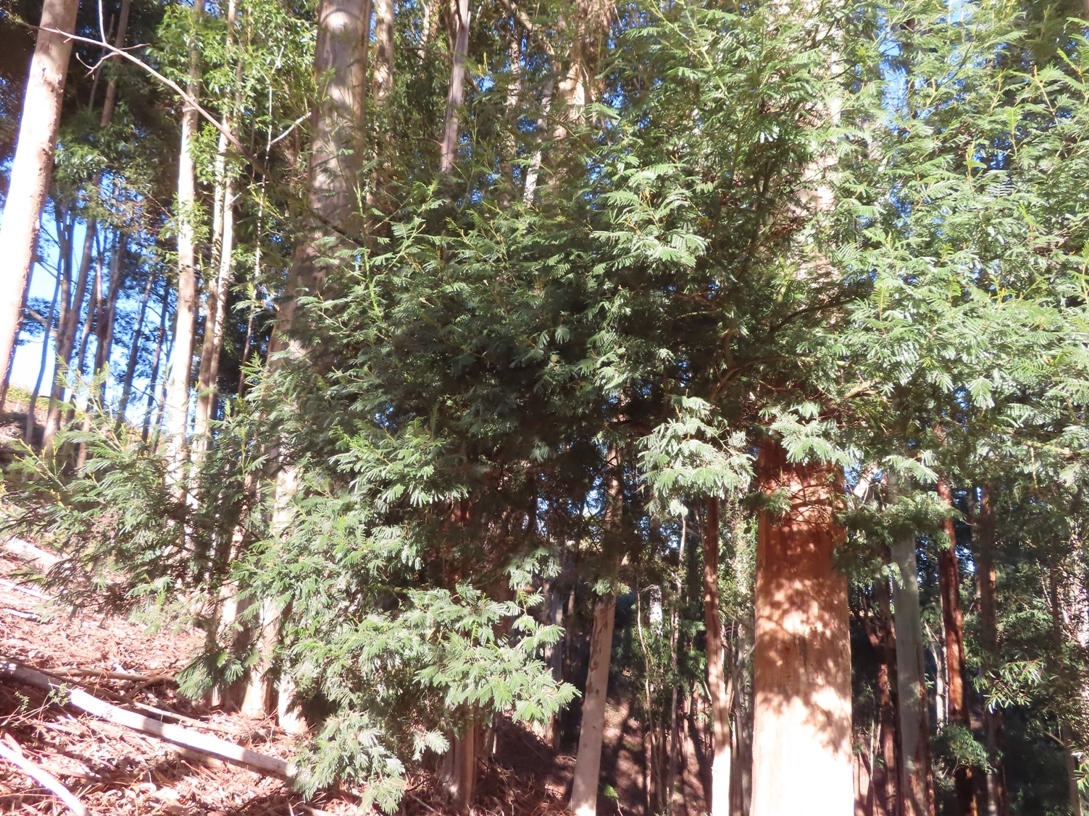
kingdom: Plantae
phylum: Tracheophyta
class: Magnoliopsida
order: Fabales
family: Fabaceae
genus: Acacia
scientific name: Acacia mearnsii
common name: Black wattle
